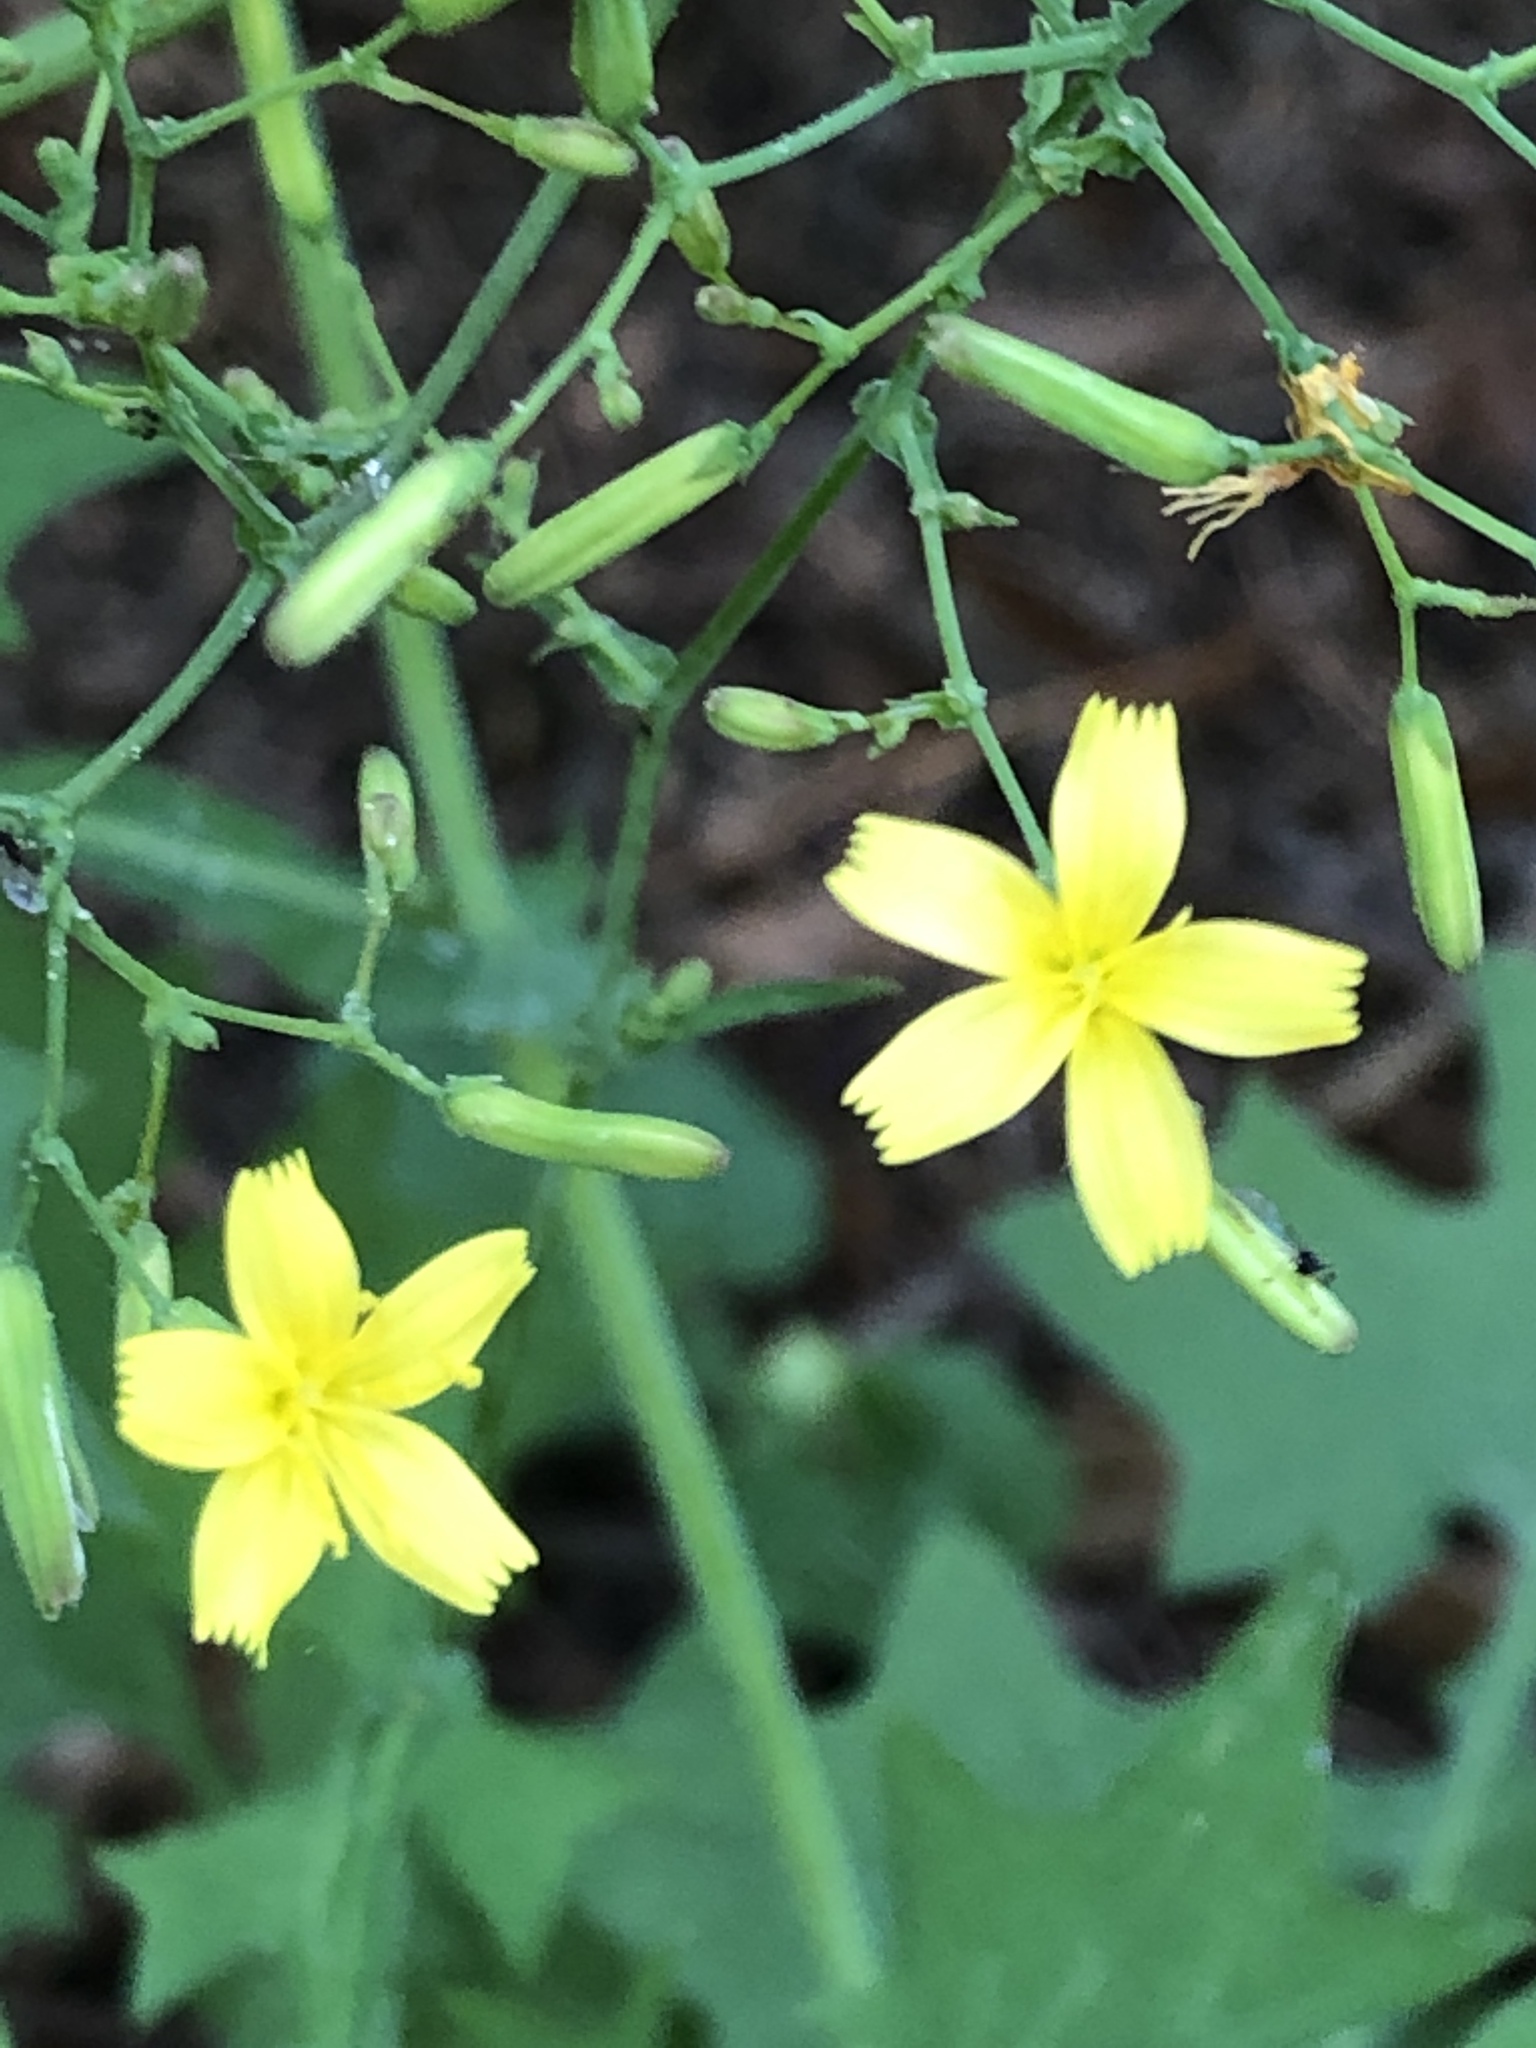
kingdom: Plantae
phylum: Tracheophyta
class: Magnoliopsida
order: Asterales
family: Asteraceae
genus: Mycelis
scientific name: Mycelis muralis
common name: Wall lettuce
